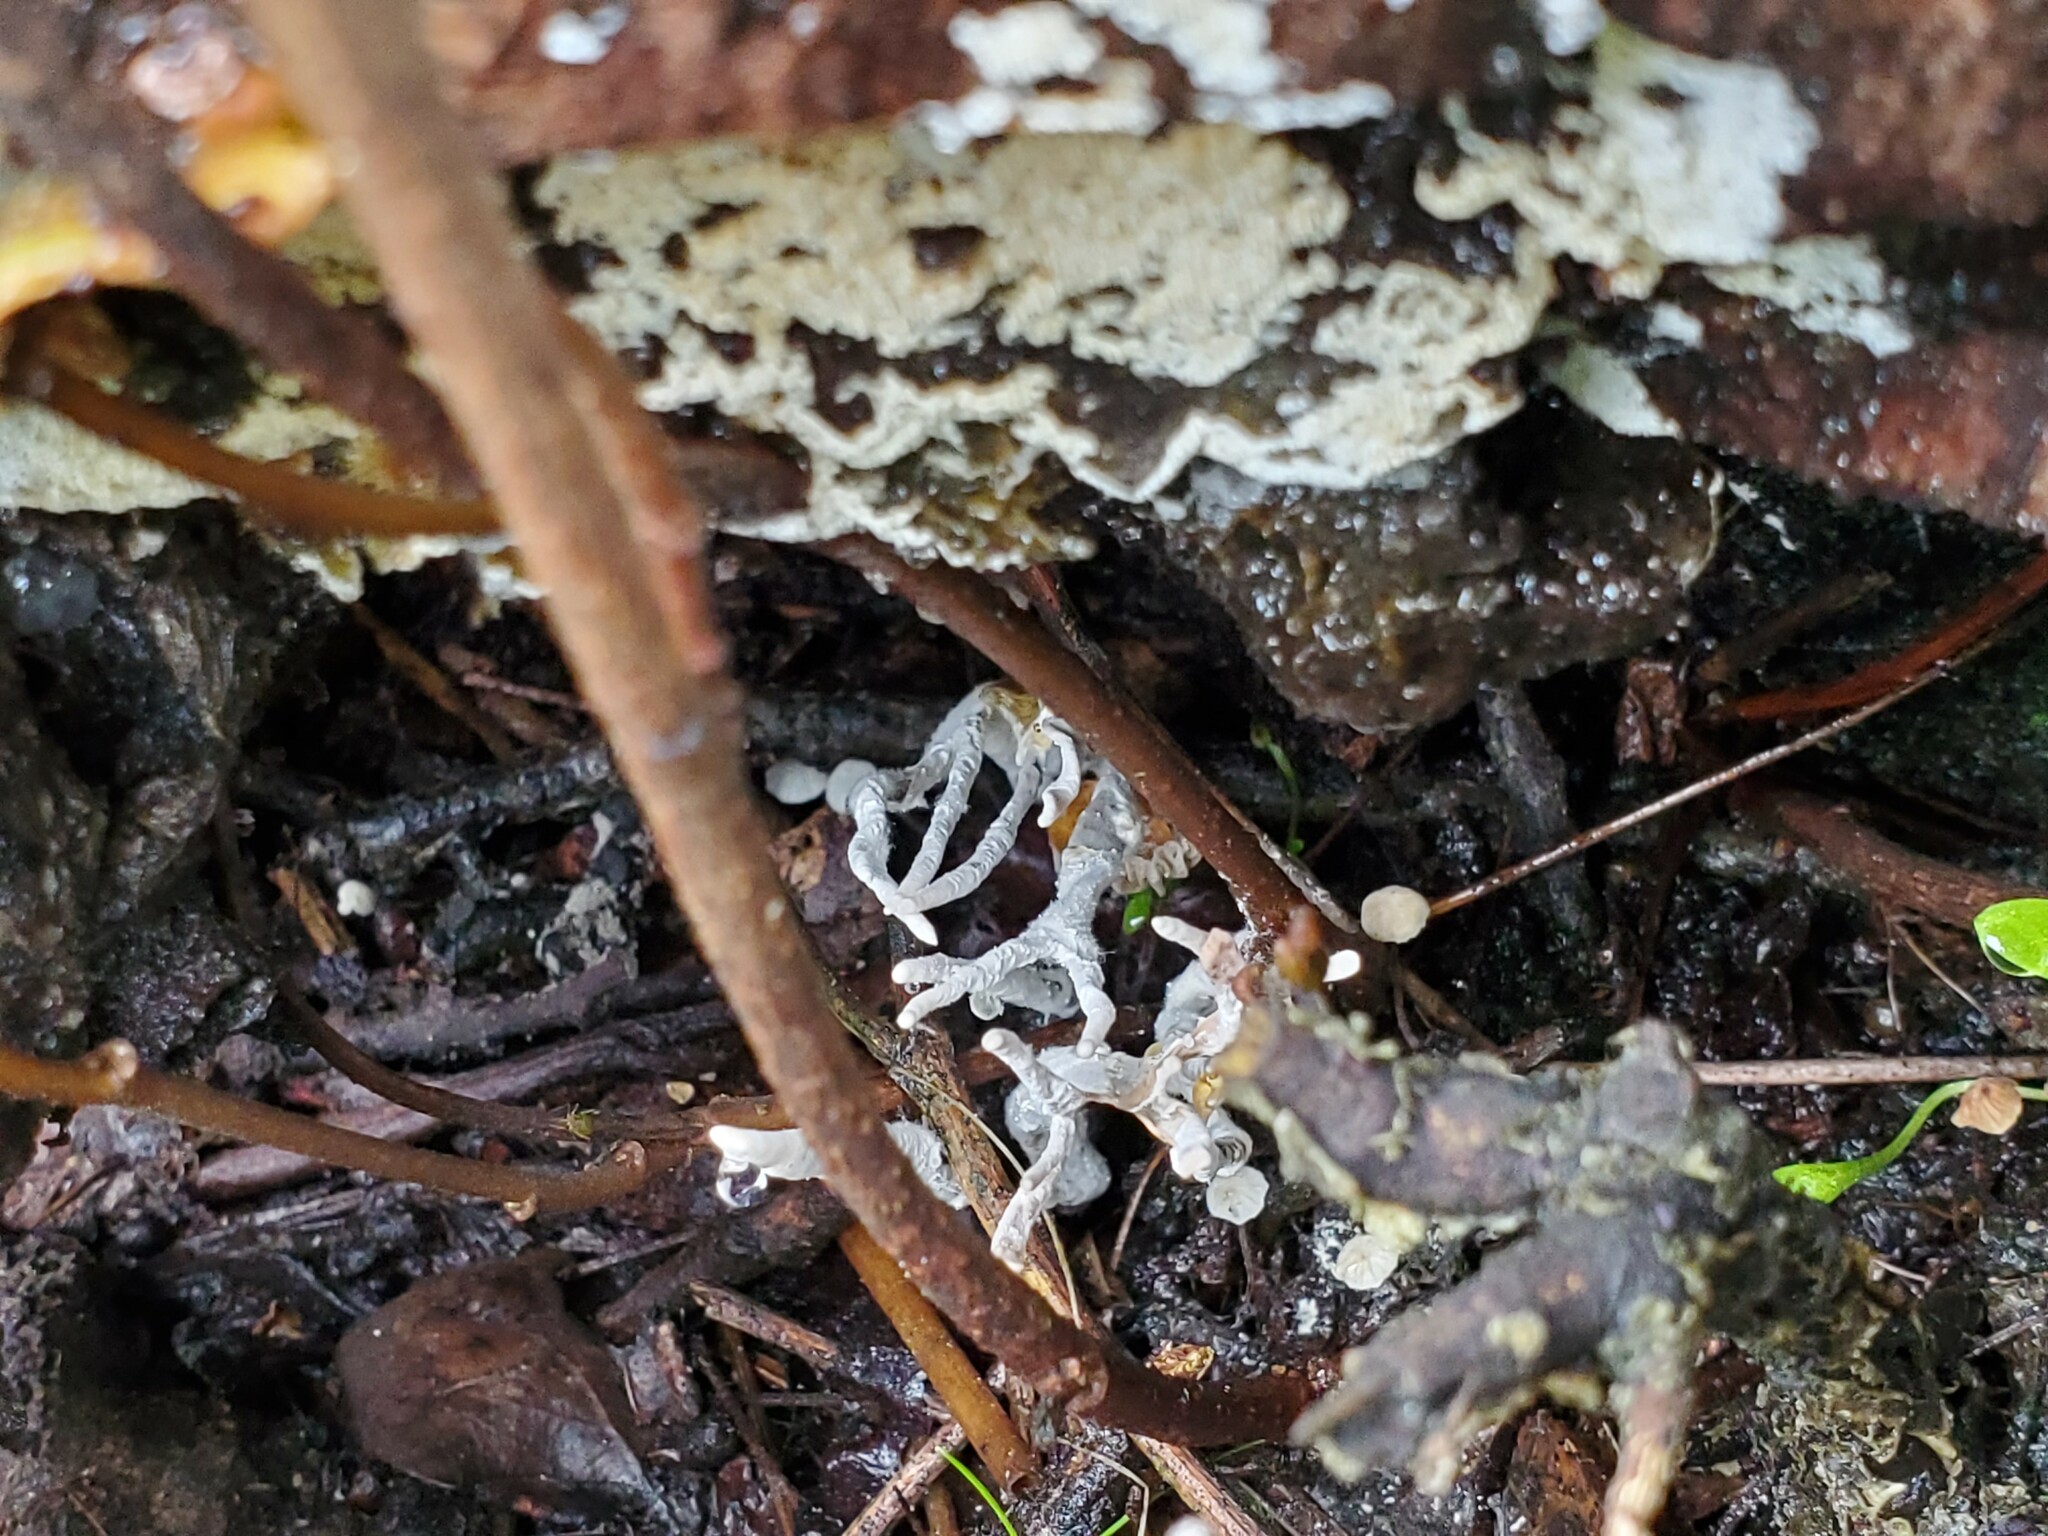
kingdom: Fungi
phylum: Ascomycota
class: Sordariomycetes
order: Xylariales
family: Xylariaceae
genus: Xylaria
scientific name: Xylaria hypoxylon
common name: Candle-snuff fungus
